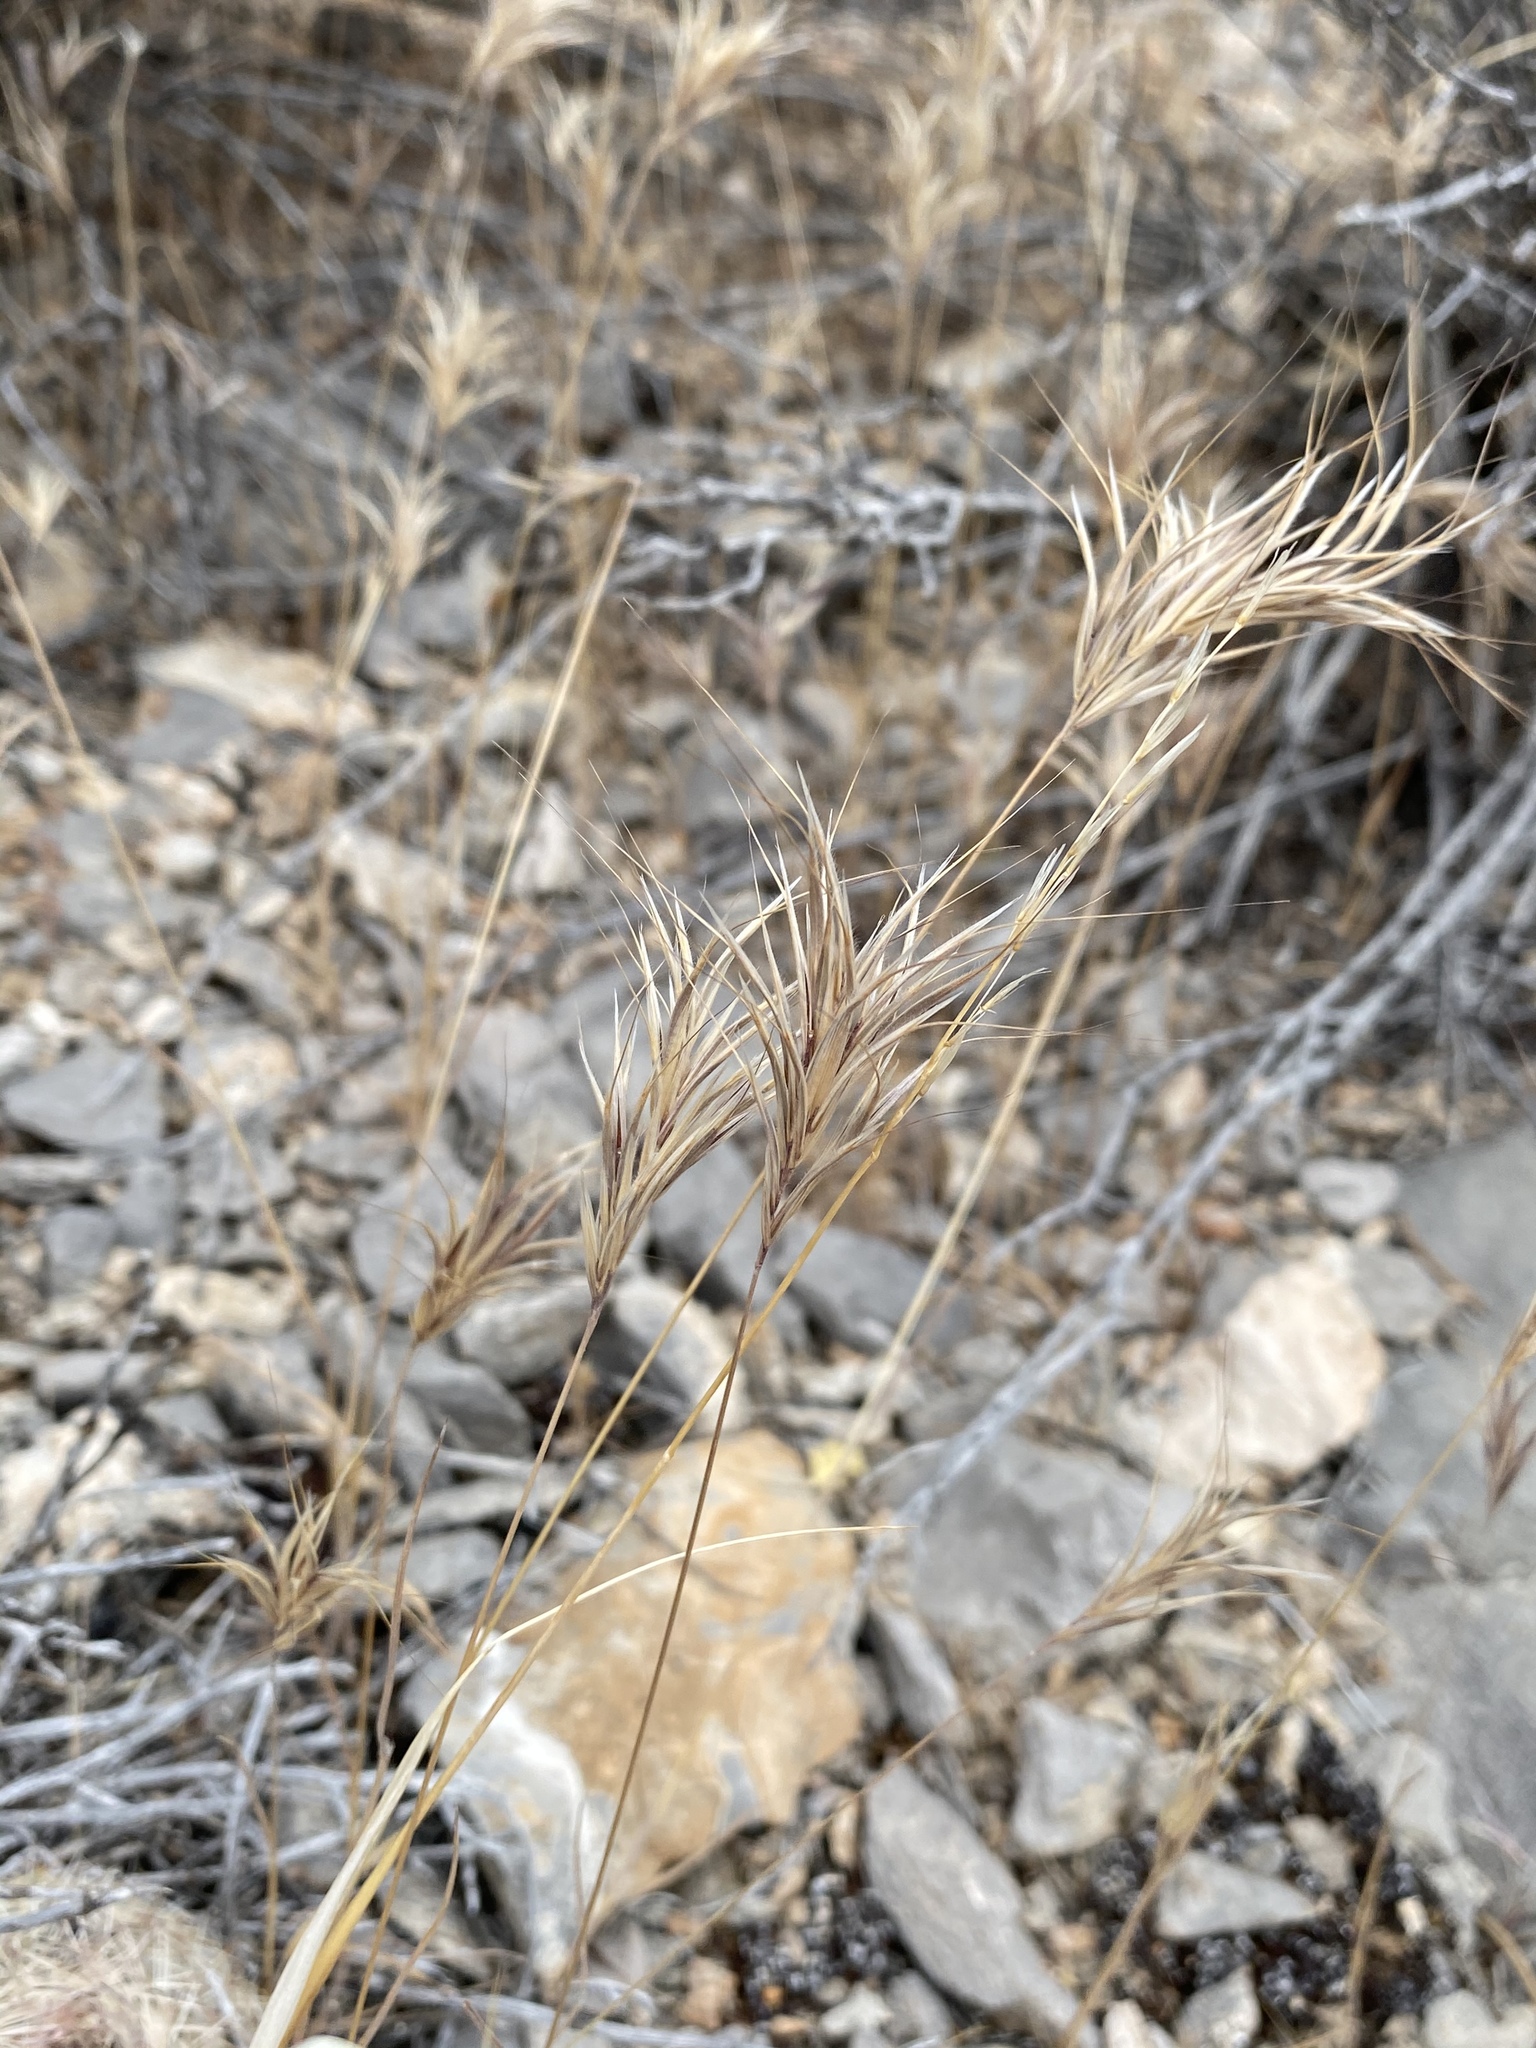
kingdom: Plantae
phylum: Tracheophyta
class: Liliopsida
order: Poales
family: Poaceae
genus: Bromus
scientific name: Bromus rubens
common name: Red brome
